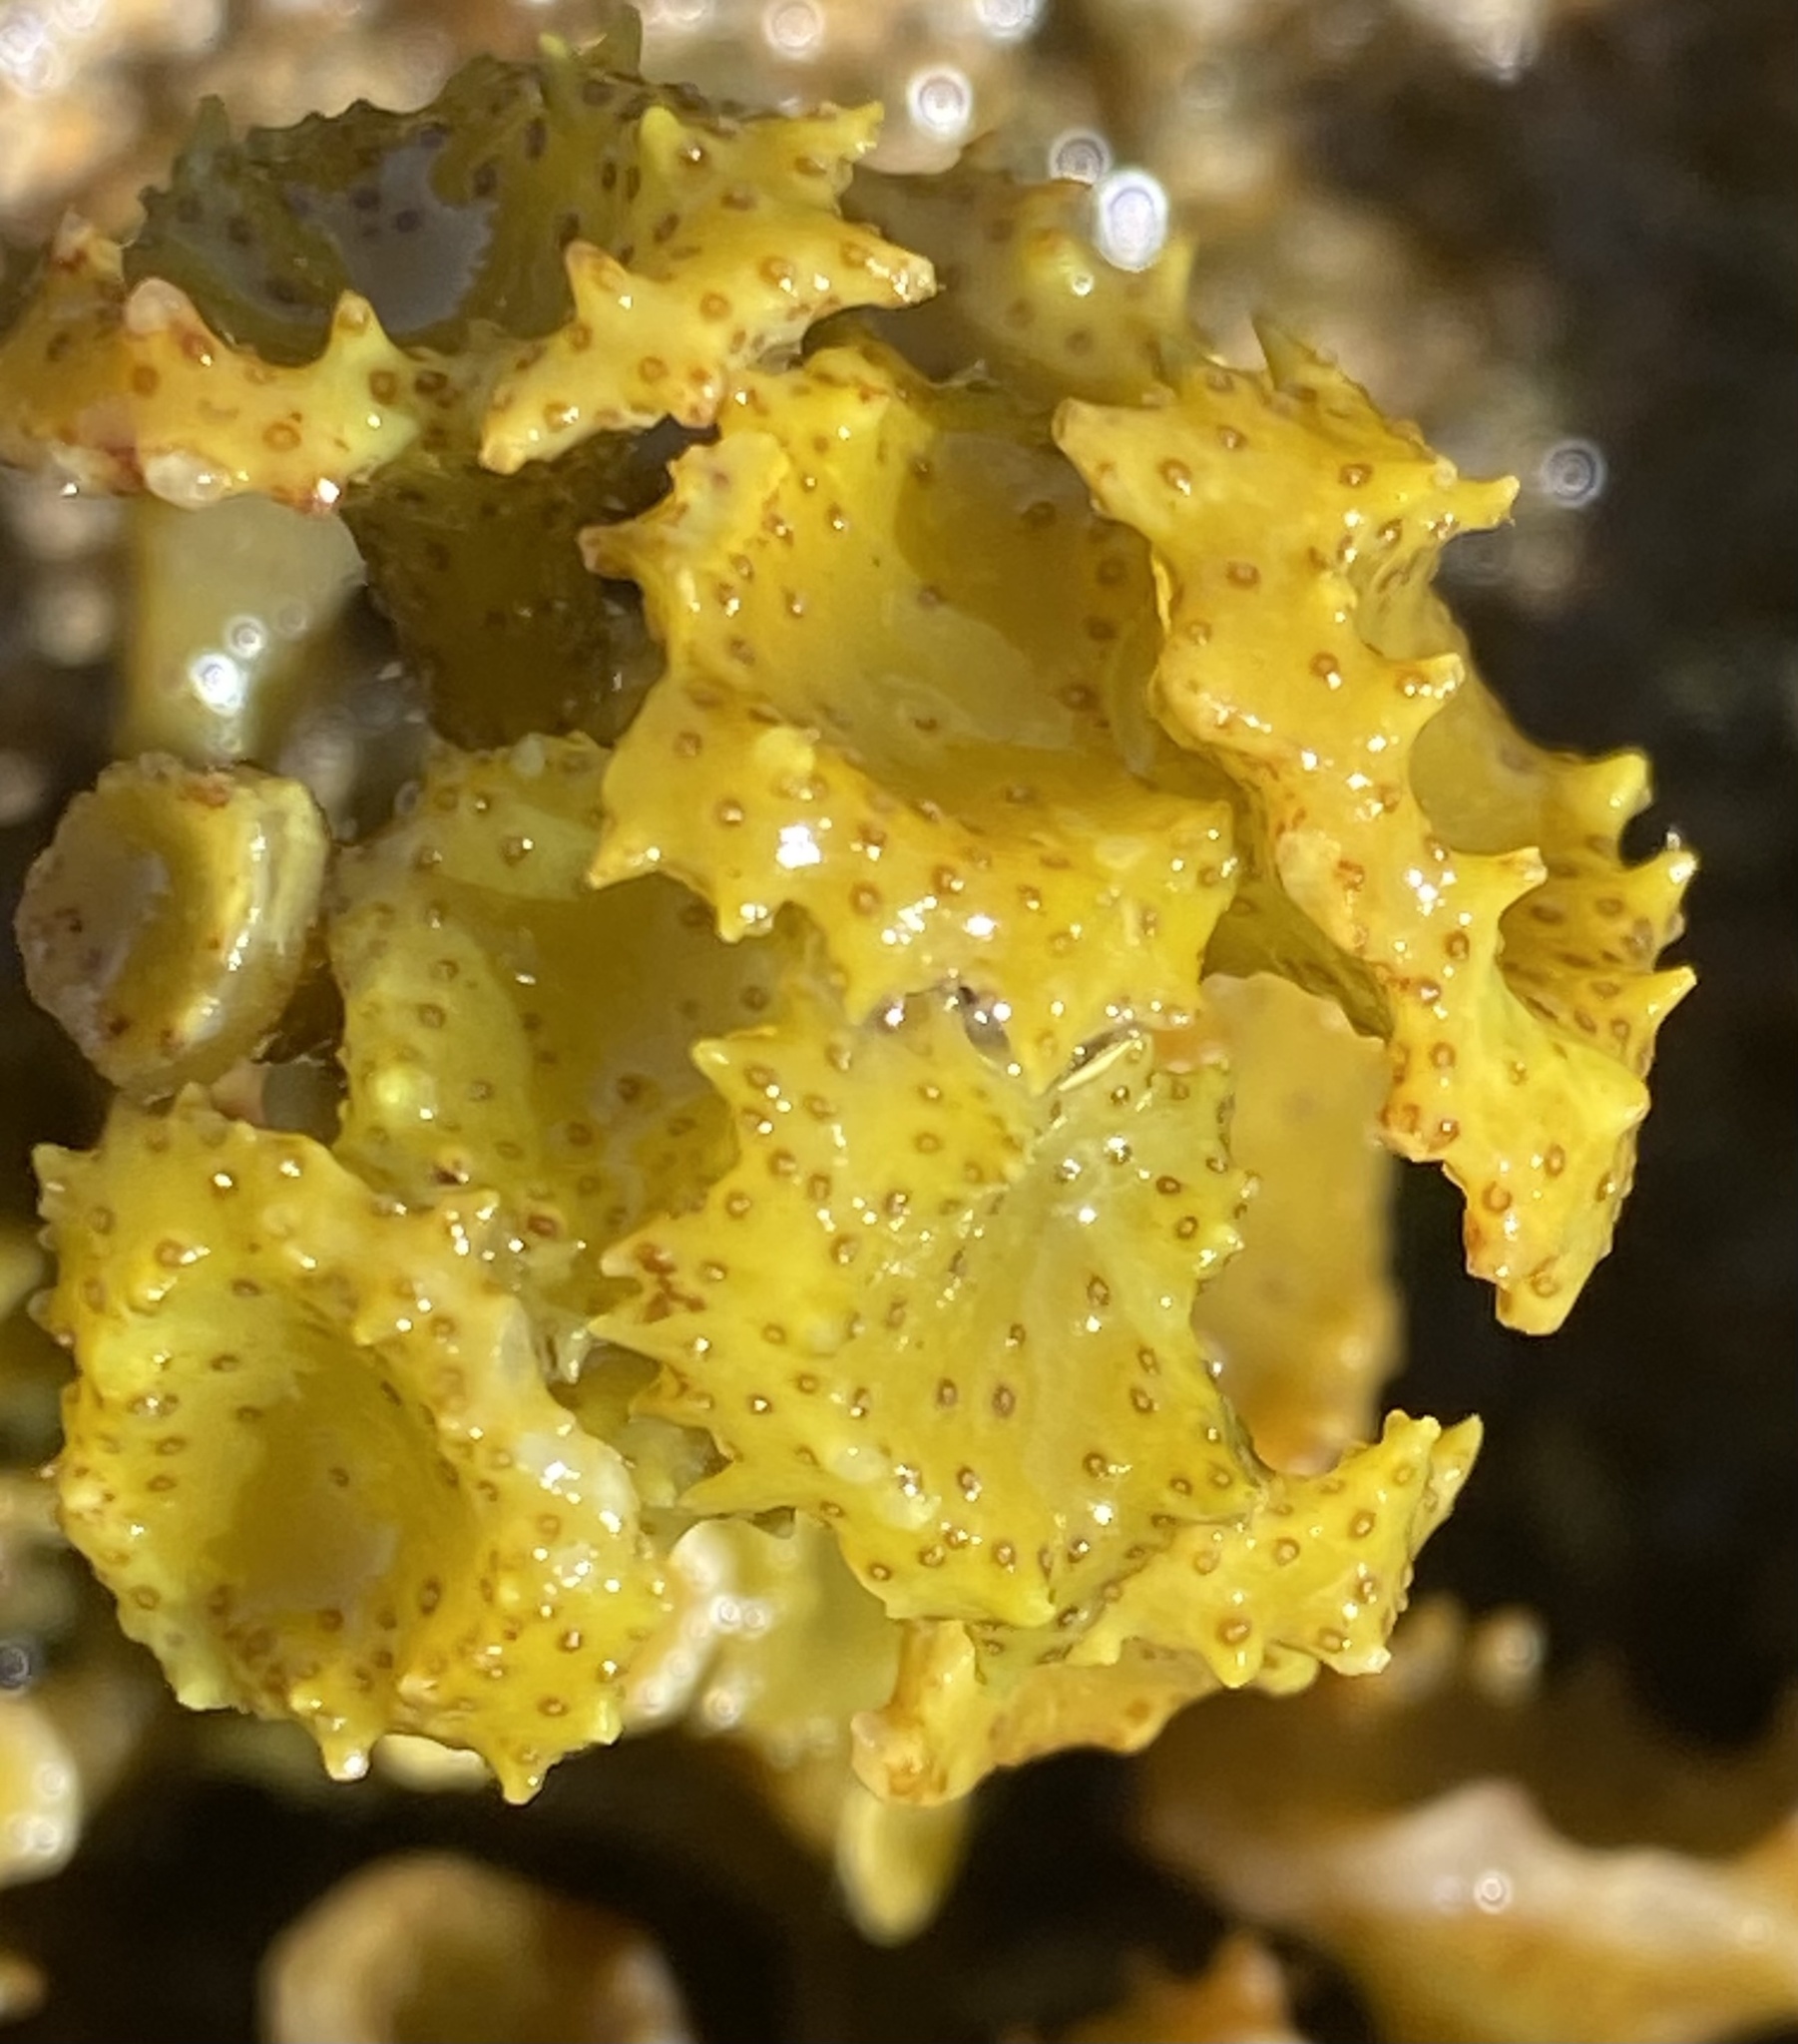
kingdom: Chromista
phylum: Ochrophyta
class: Phaeophyceae
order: Fucales
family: Sargassaceae
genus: Turbinaria
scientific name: Turbinaria ornata
